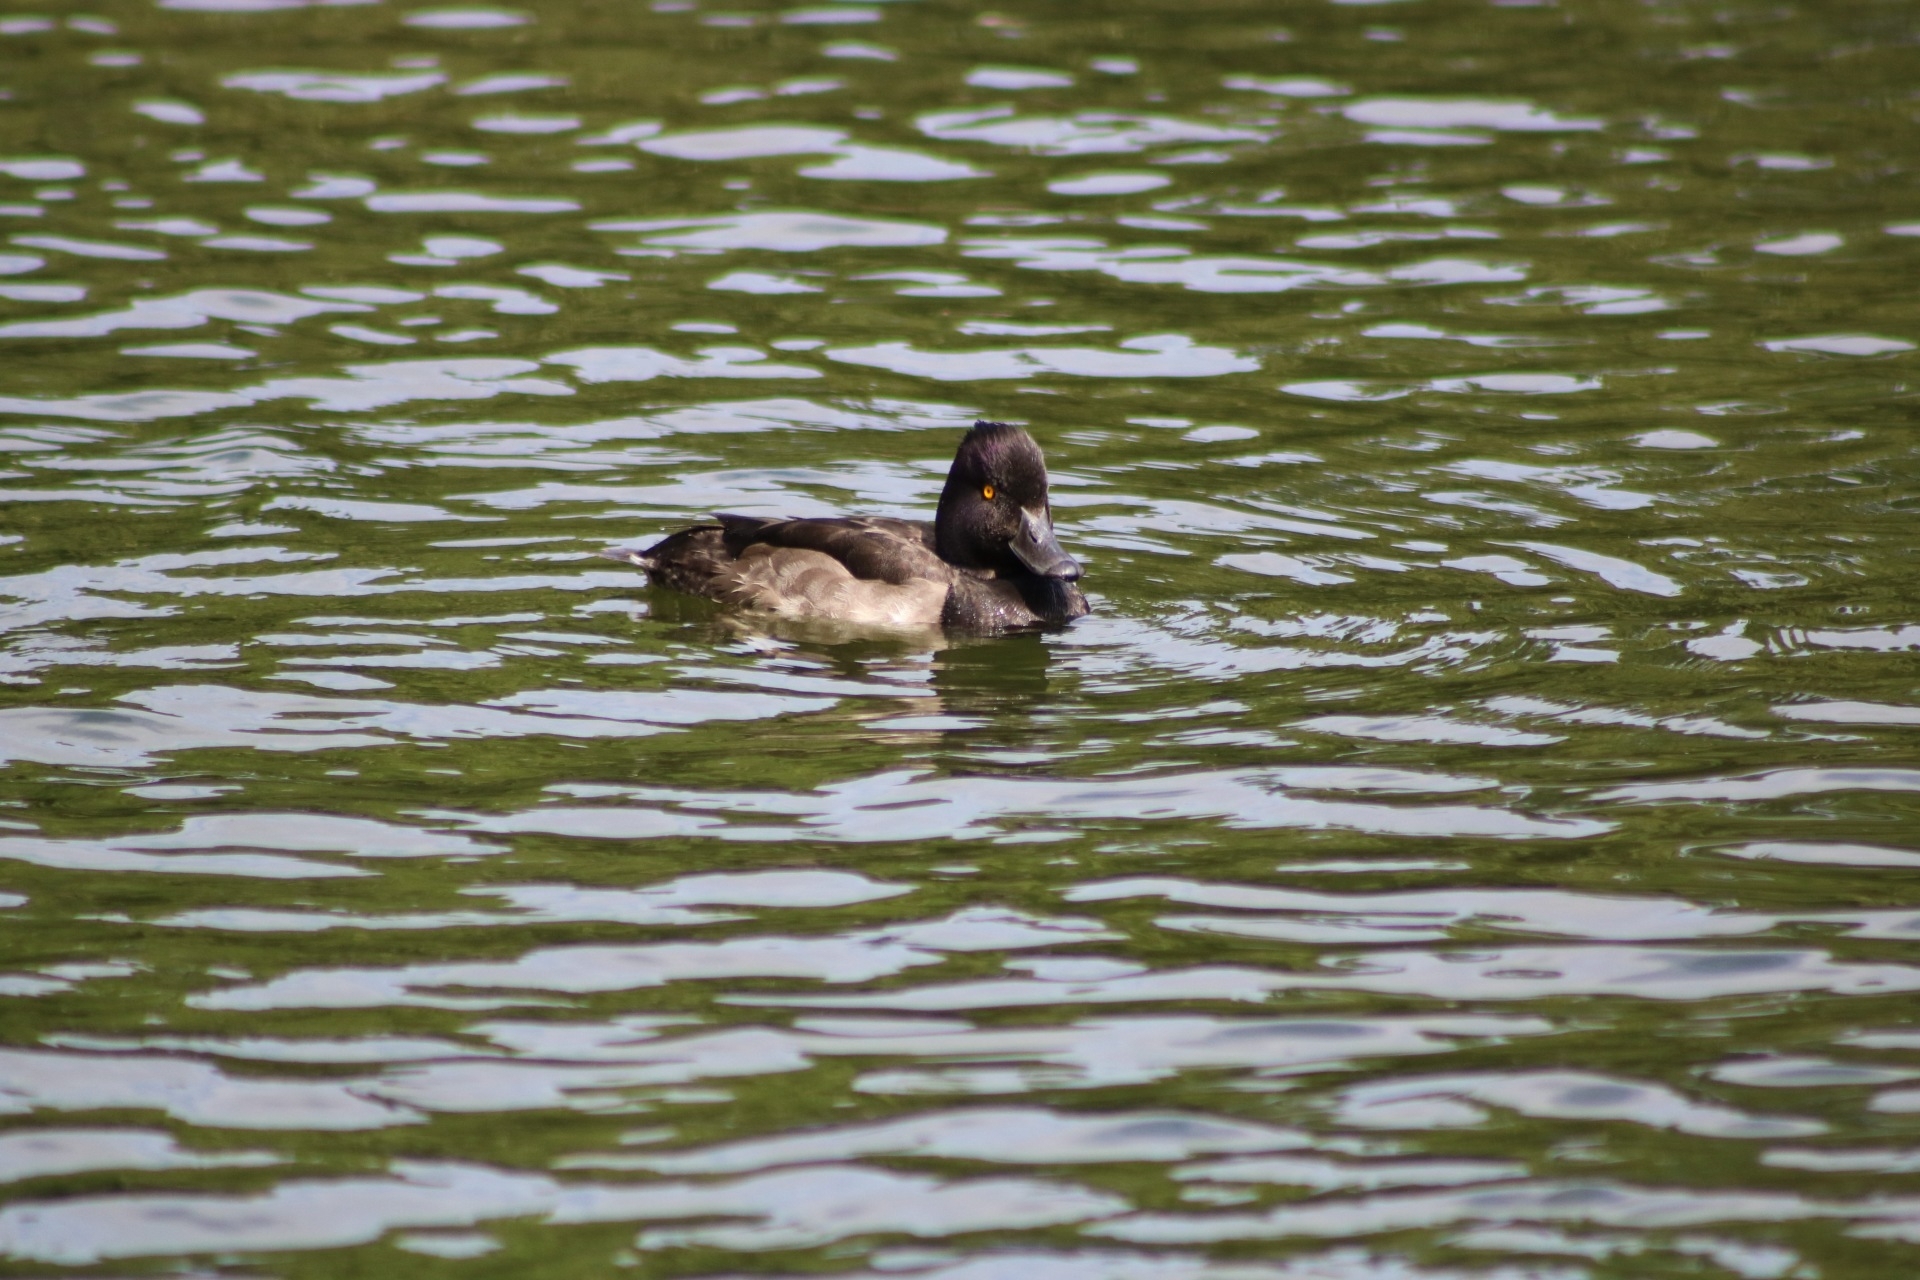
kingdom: Animalia
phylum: Chordata
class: Aves
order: Anseriformes
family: Anatidae
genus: Aythya
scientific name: Aythya fuligula
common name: Tufted duck
